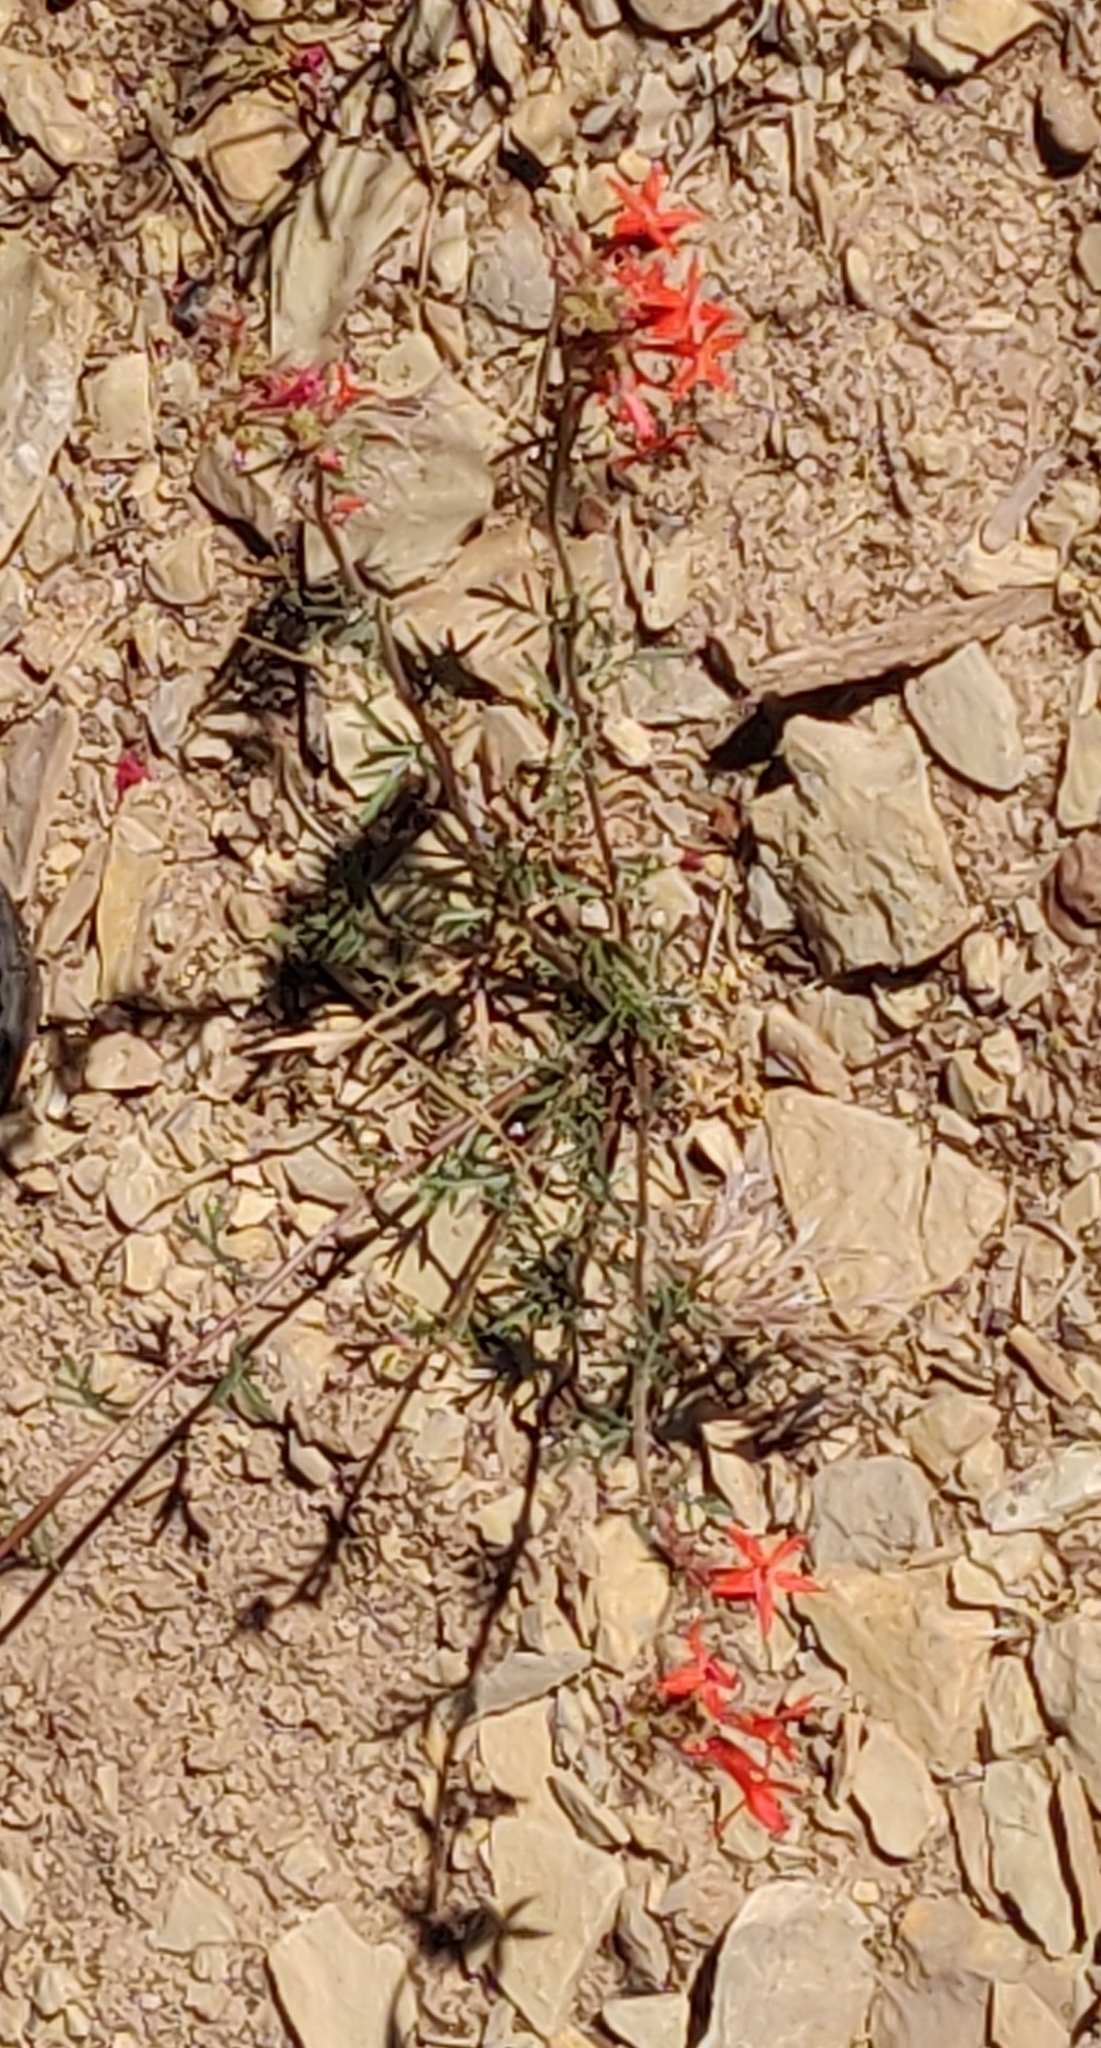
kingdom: Plantae
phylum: Tracheophyta
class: Magnoliopsida
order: Ericales
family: Polemoniaceae
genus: Ipomopsis
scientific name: Ipomopsis arizonica
